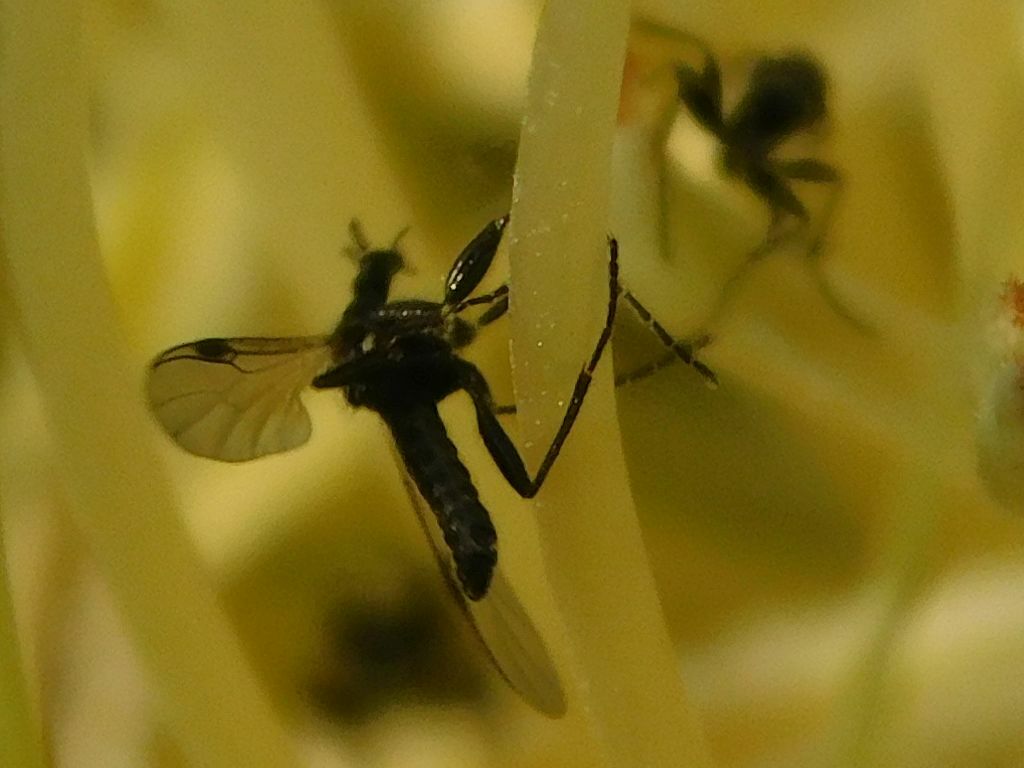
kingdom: Plantae
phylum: Tracheophyta
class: Magnoliopsida
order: Proteales
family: Proteaceae
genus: Protea
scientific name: Protea nitida
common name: Tree protea
